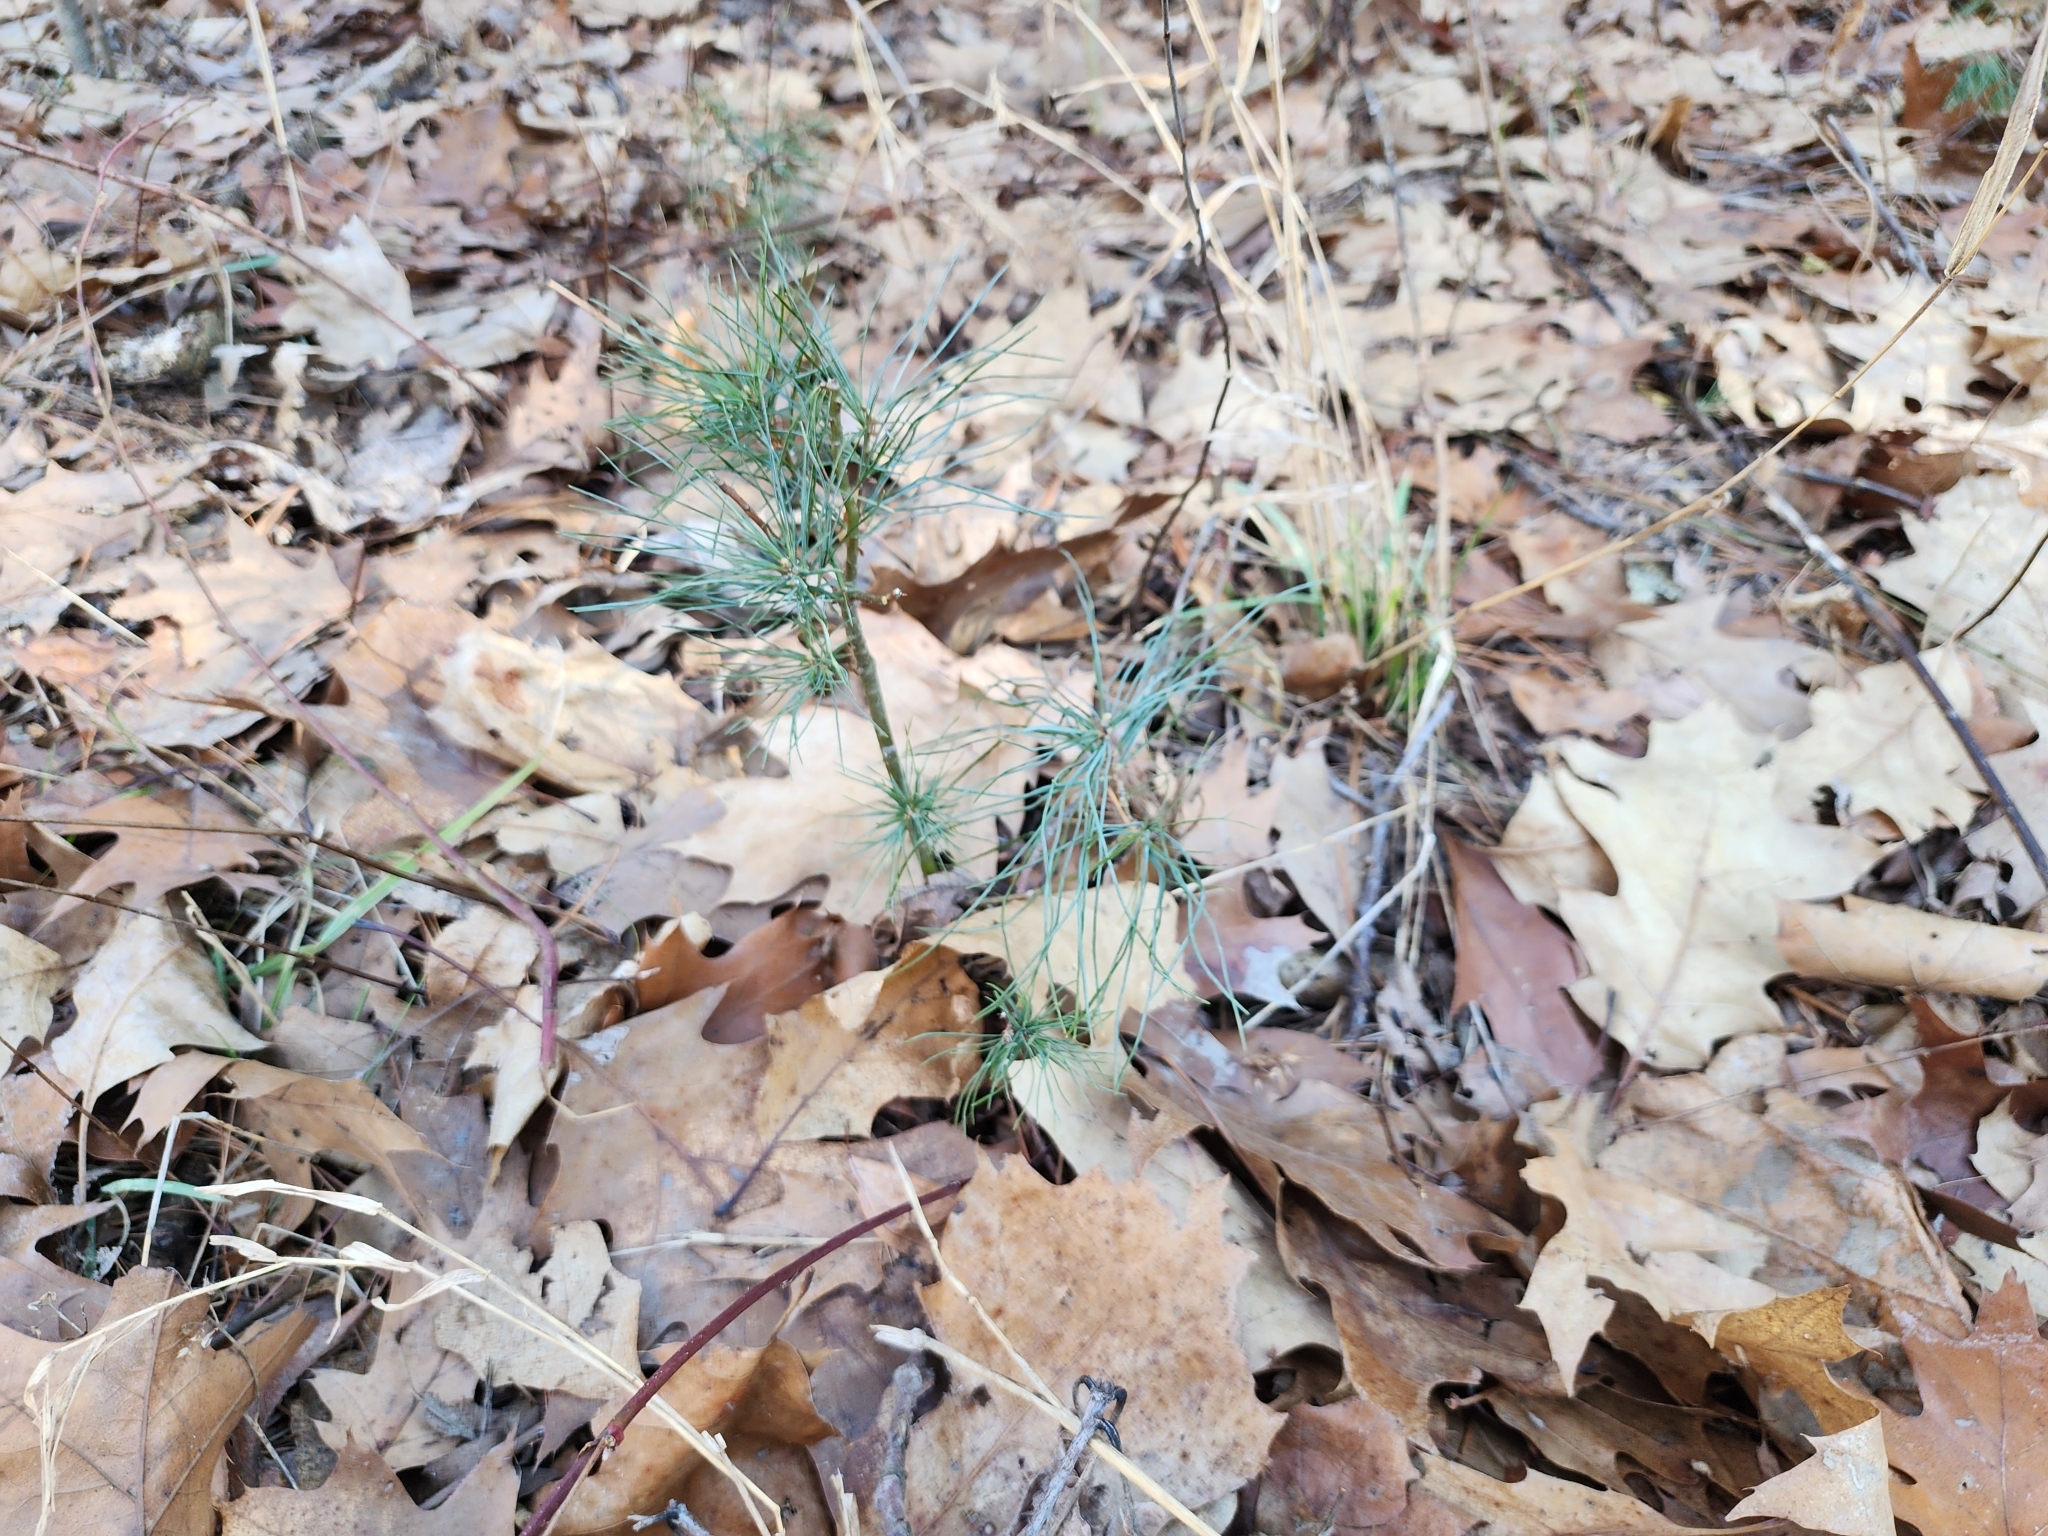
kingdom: Plantae
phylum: Tracheophyta
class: Pinopsida
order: Pinales
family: Pinaceae
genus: Pinus
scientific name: Pinus strobus
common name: Weymouth pine
